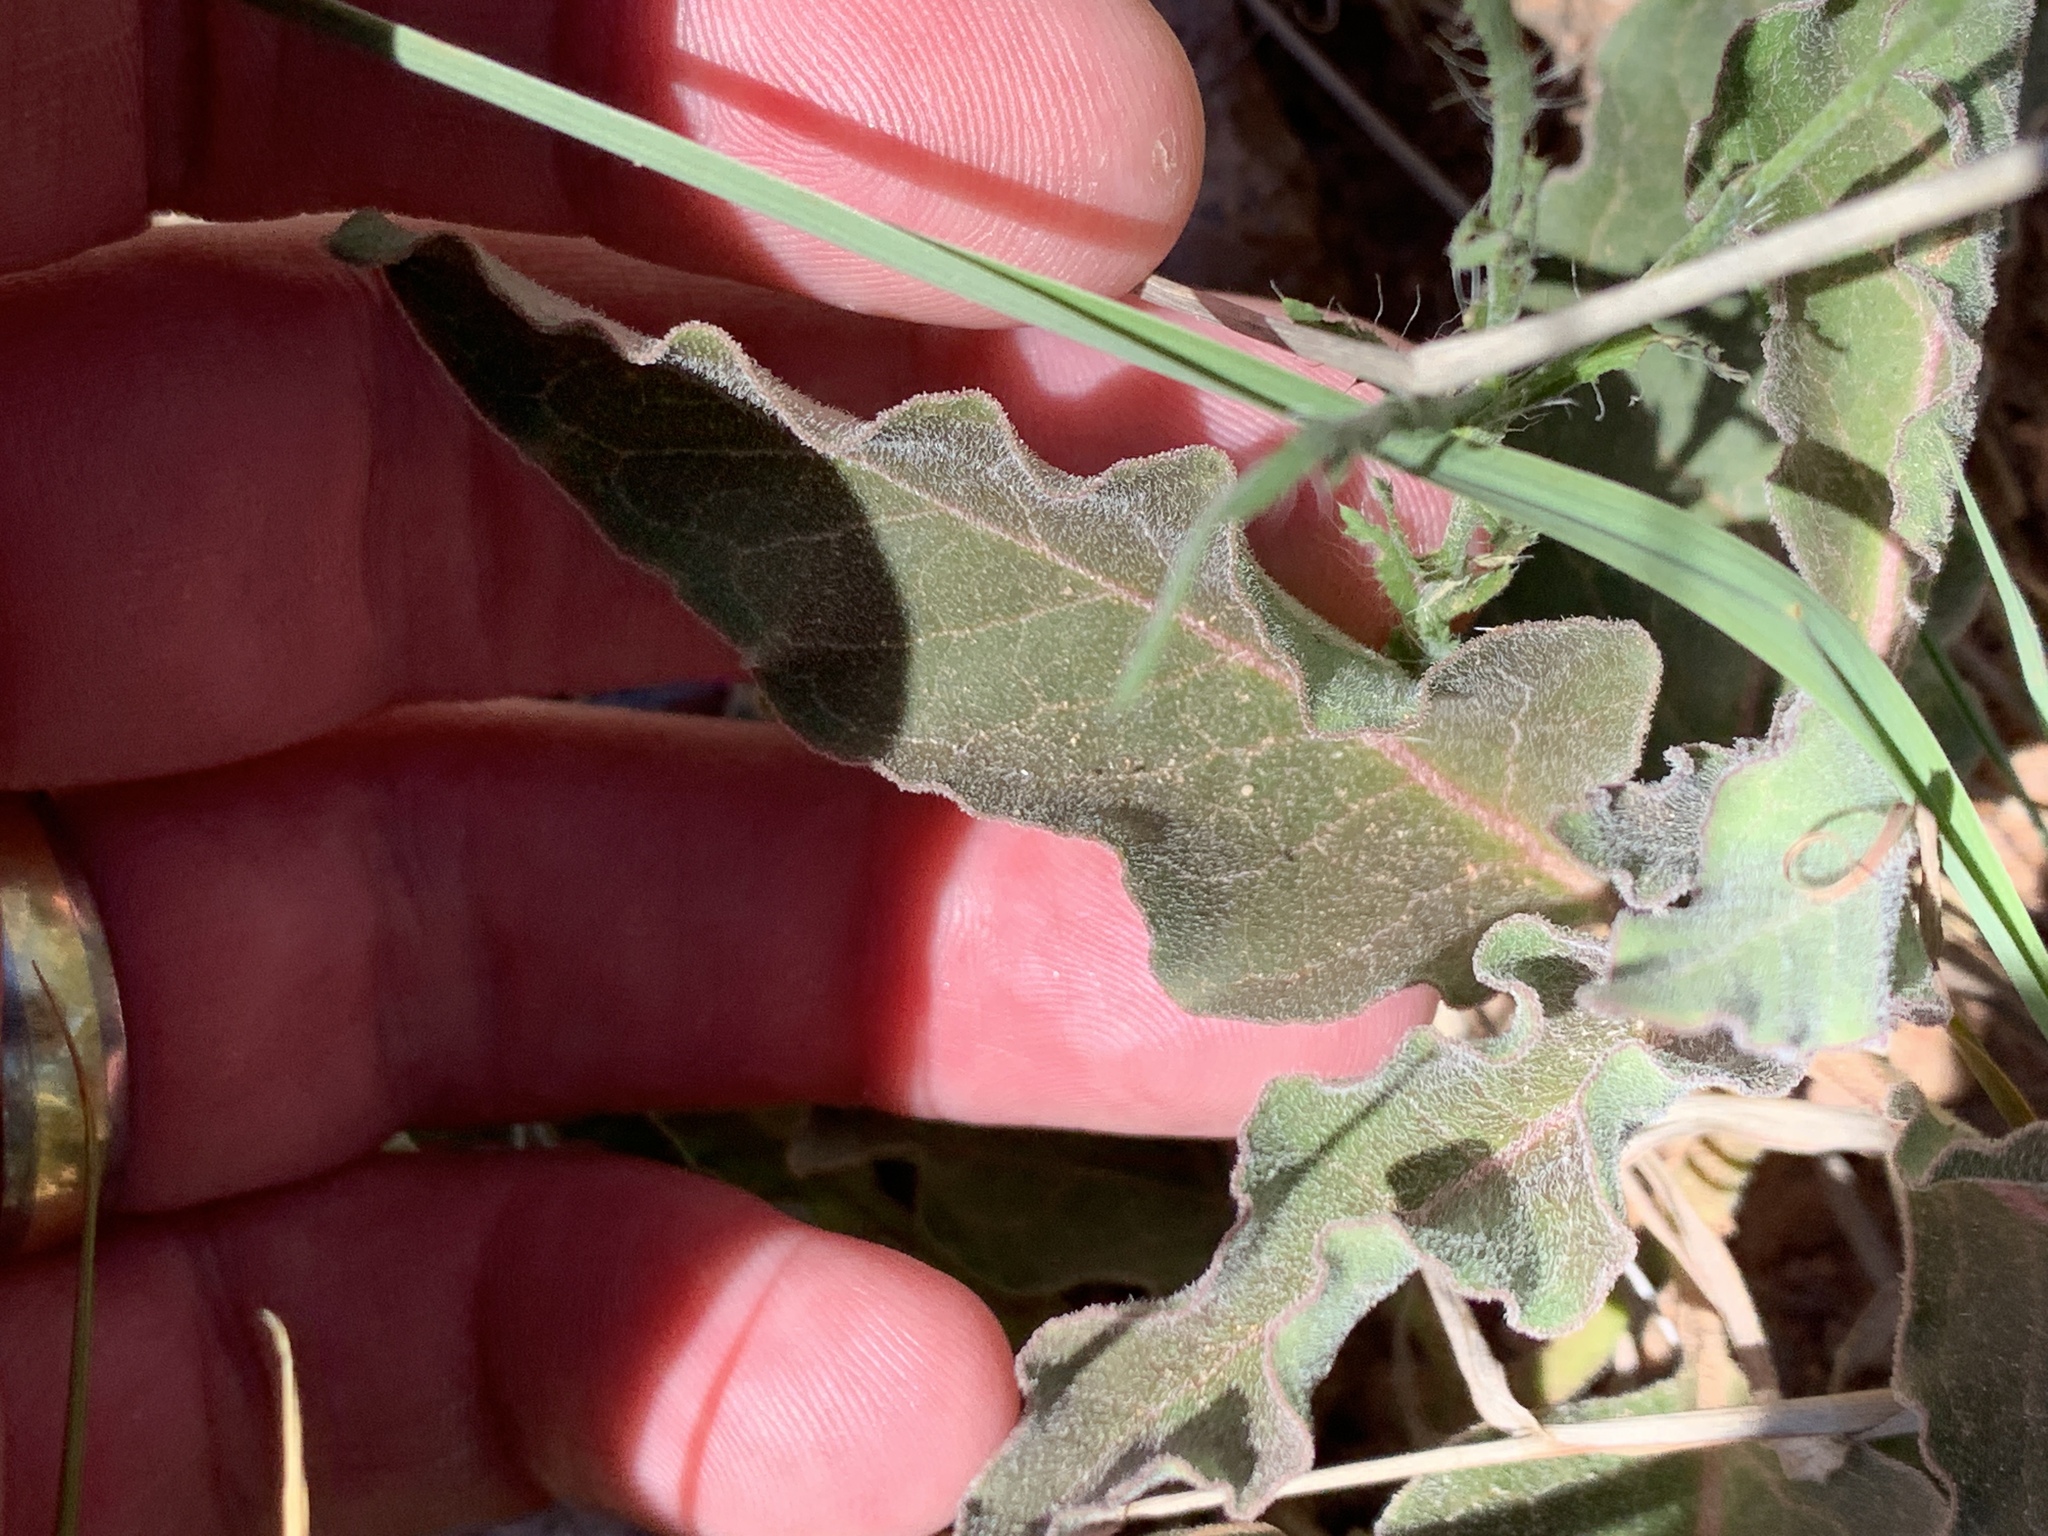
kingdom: Plantae
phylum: Tracheophyta
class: Magnoliopsida
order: Gentianales
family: Apocynaceae
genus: Asclepias
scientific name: Asclepias nyctaginifolia
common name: Mojave milkweed
